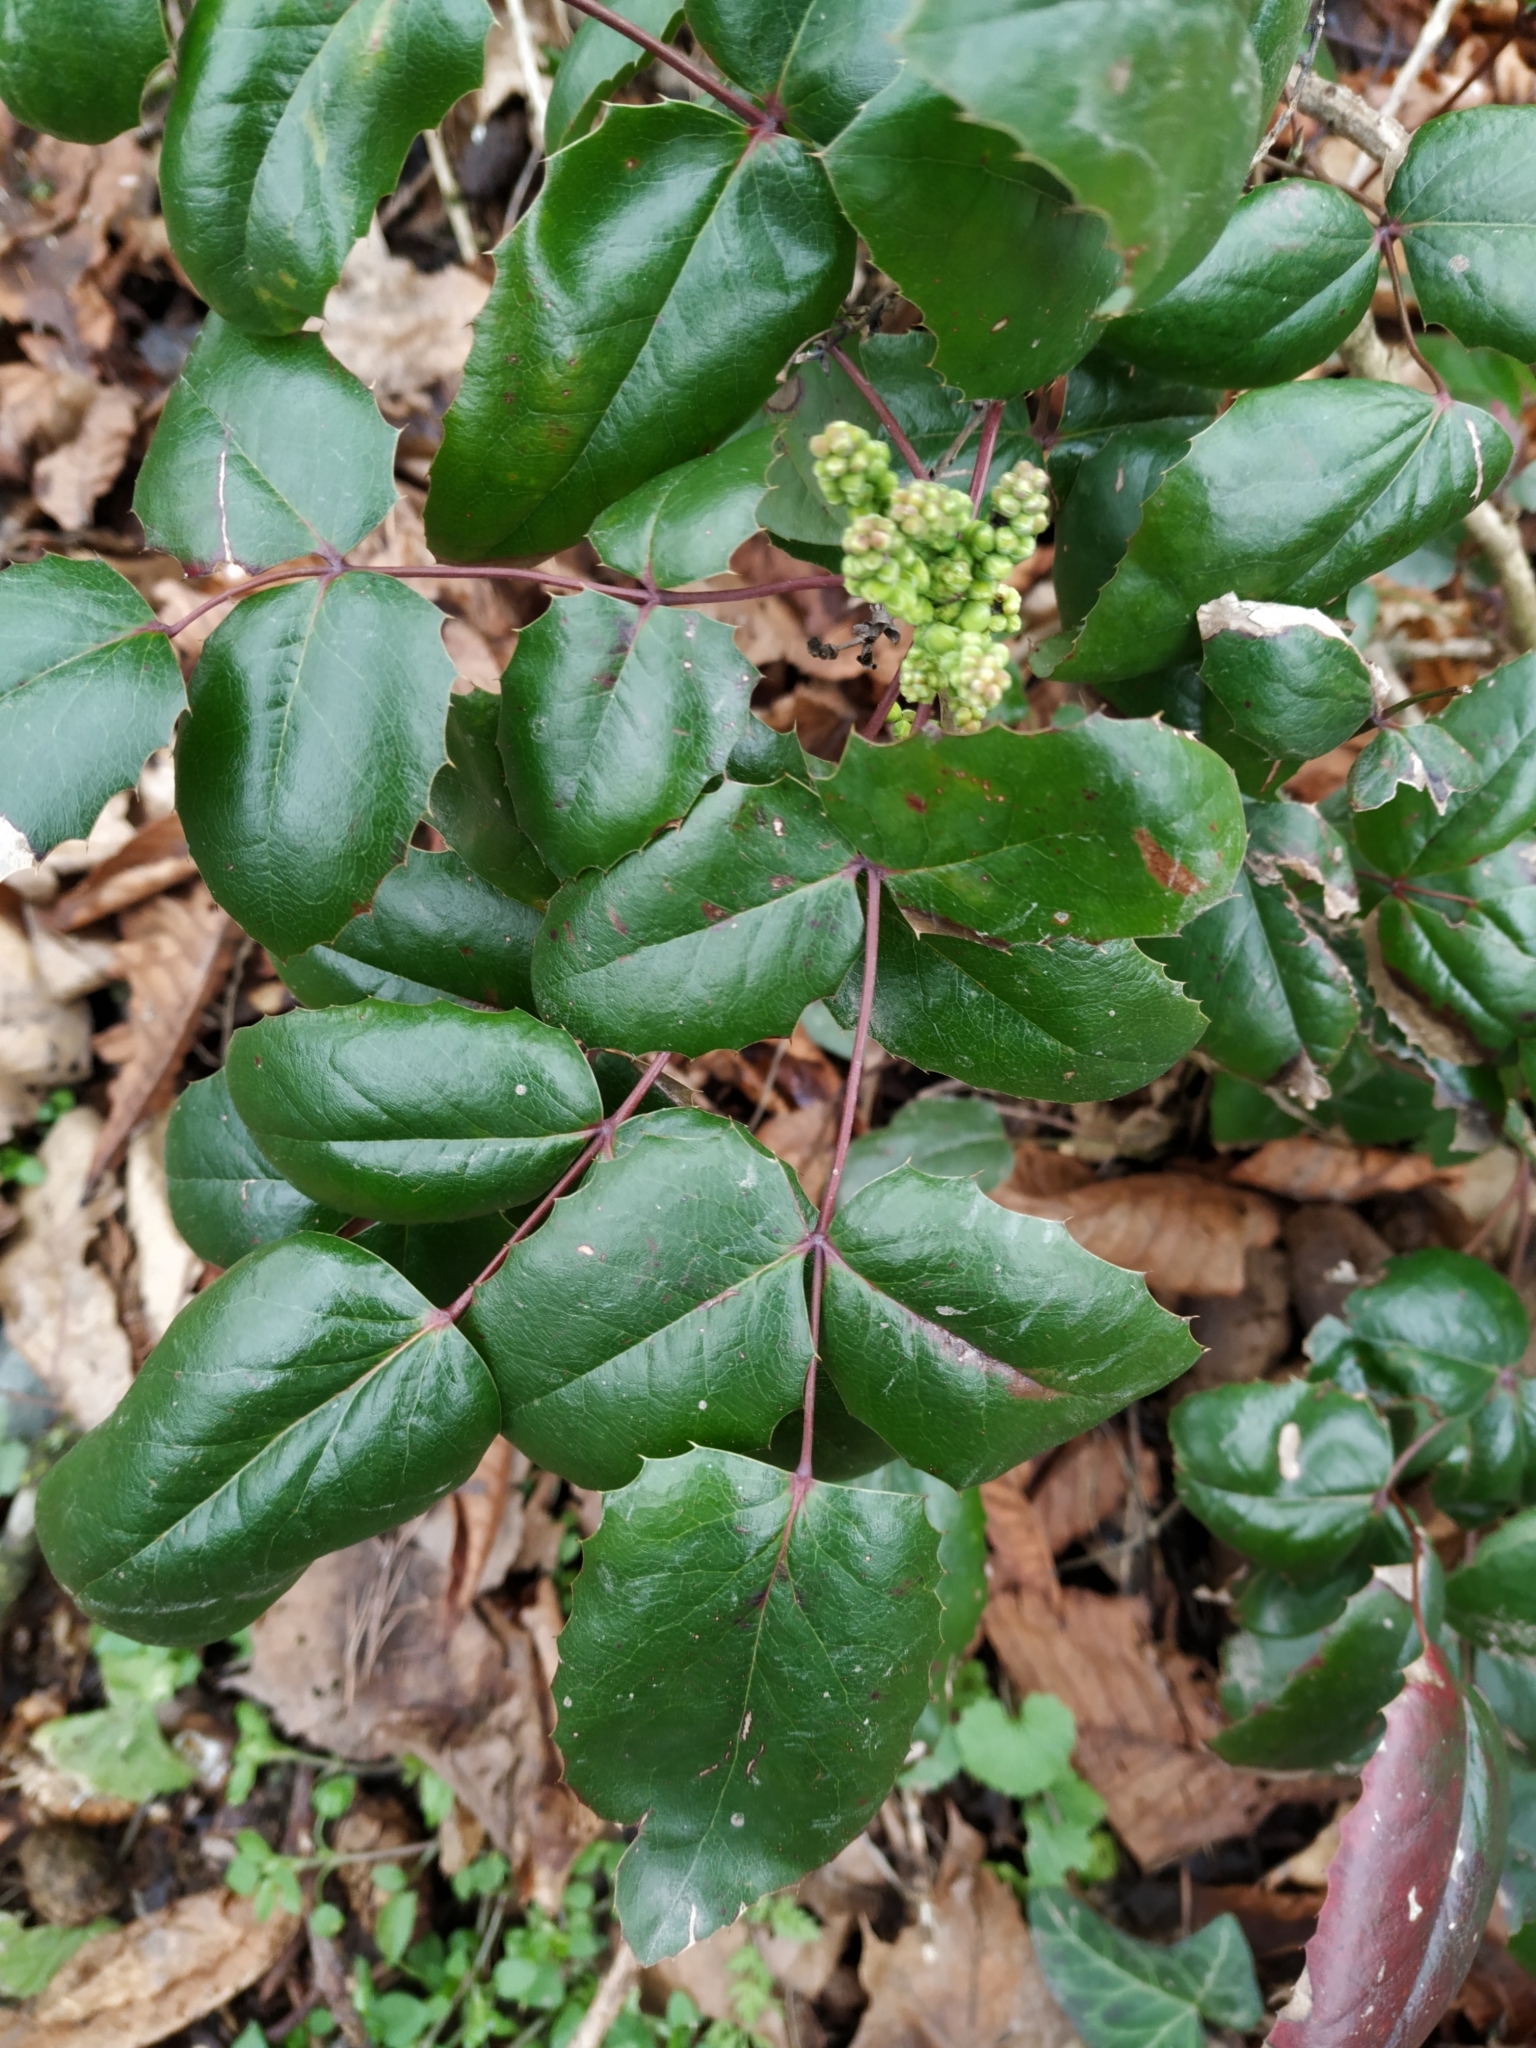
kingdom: Plantae
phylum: Tracheophyta
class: Magnoliopsida
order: Ranunculales
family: Berberidaceae
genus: Mahonia
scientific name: Mahonia aquifolium
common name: Oregon-grape
